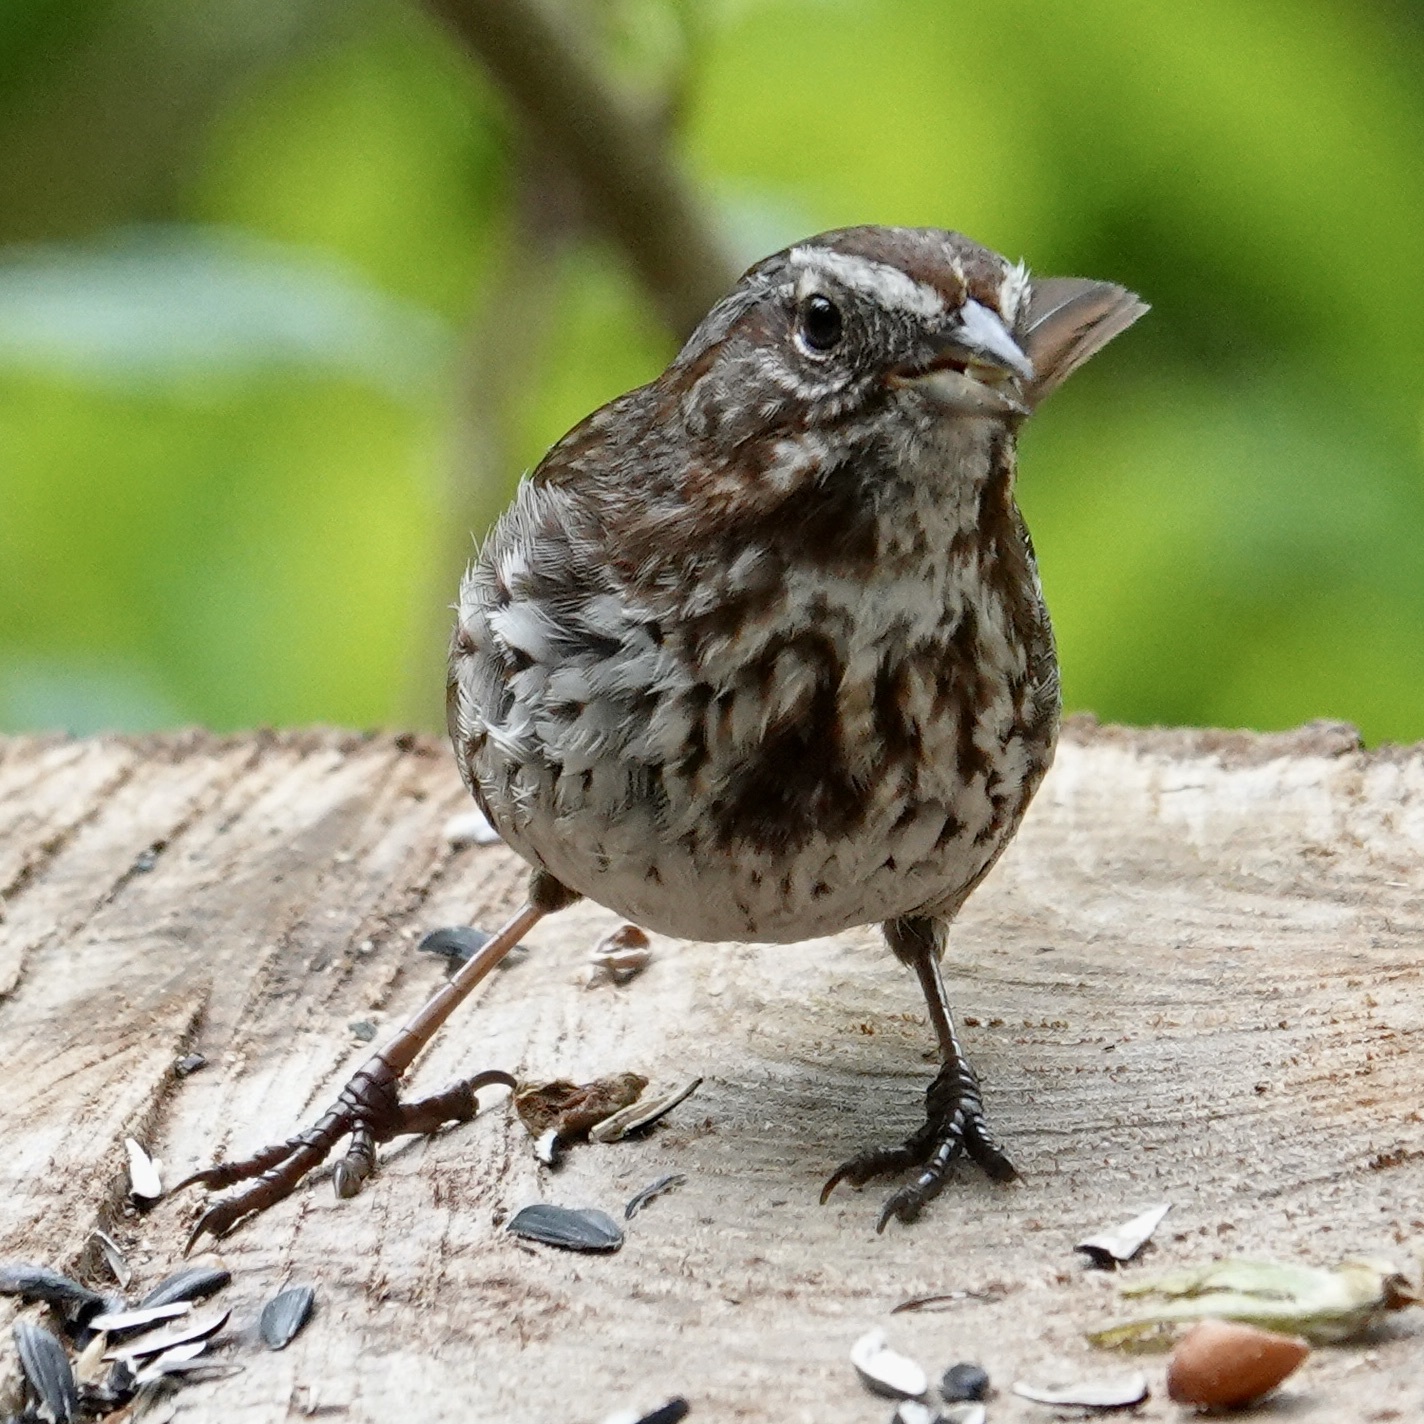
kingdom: Animalia
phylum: Chordata
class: Aves
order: Passeriformes
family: Passerellidae
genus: Melospiza
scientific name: Melospiza melodia
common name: Song sparrow
